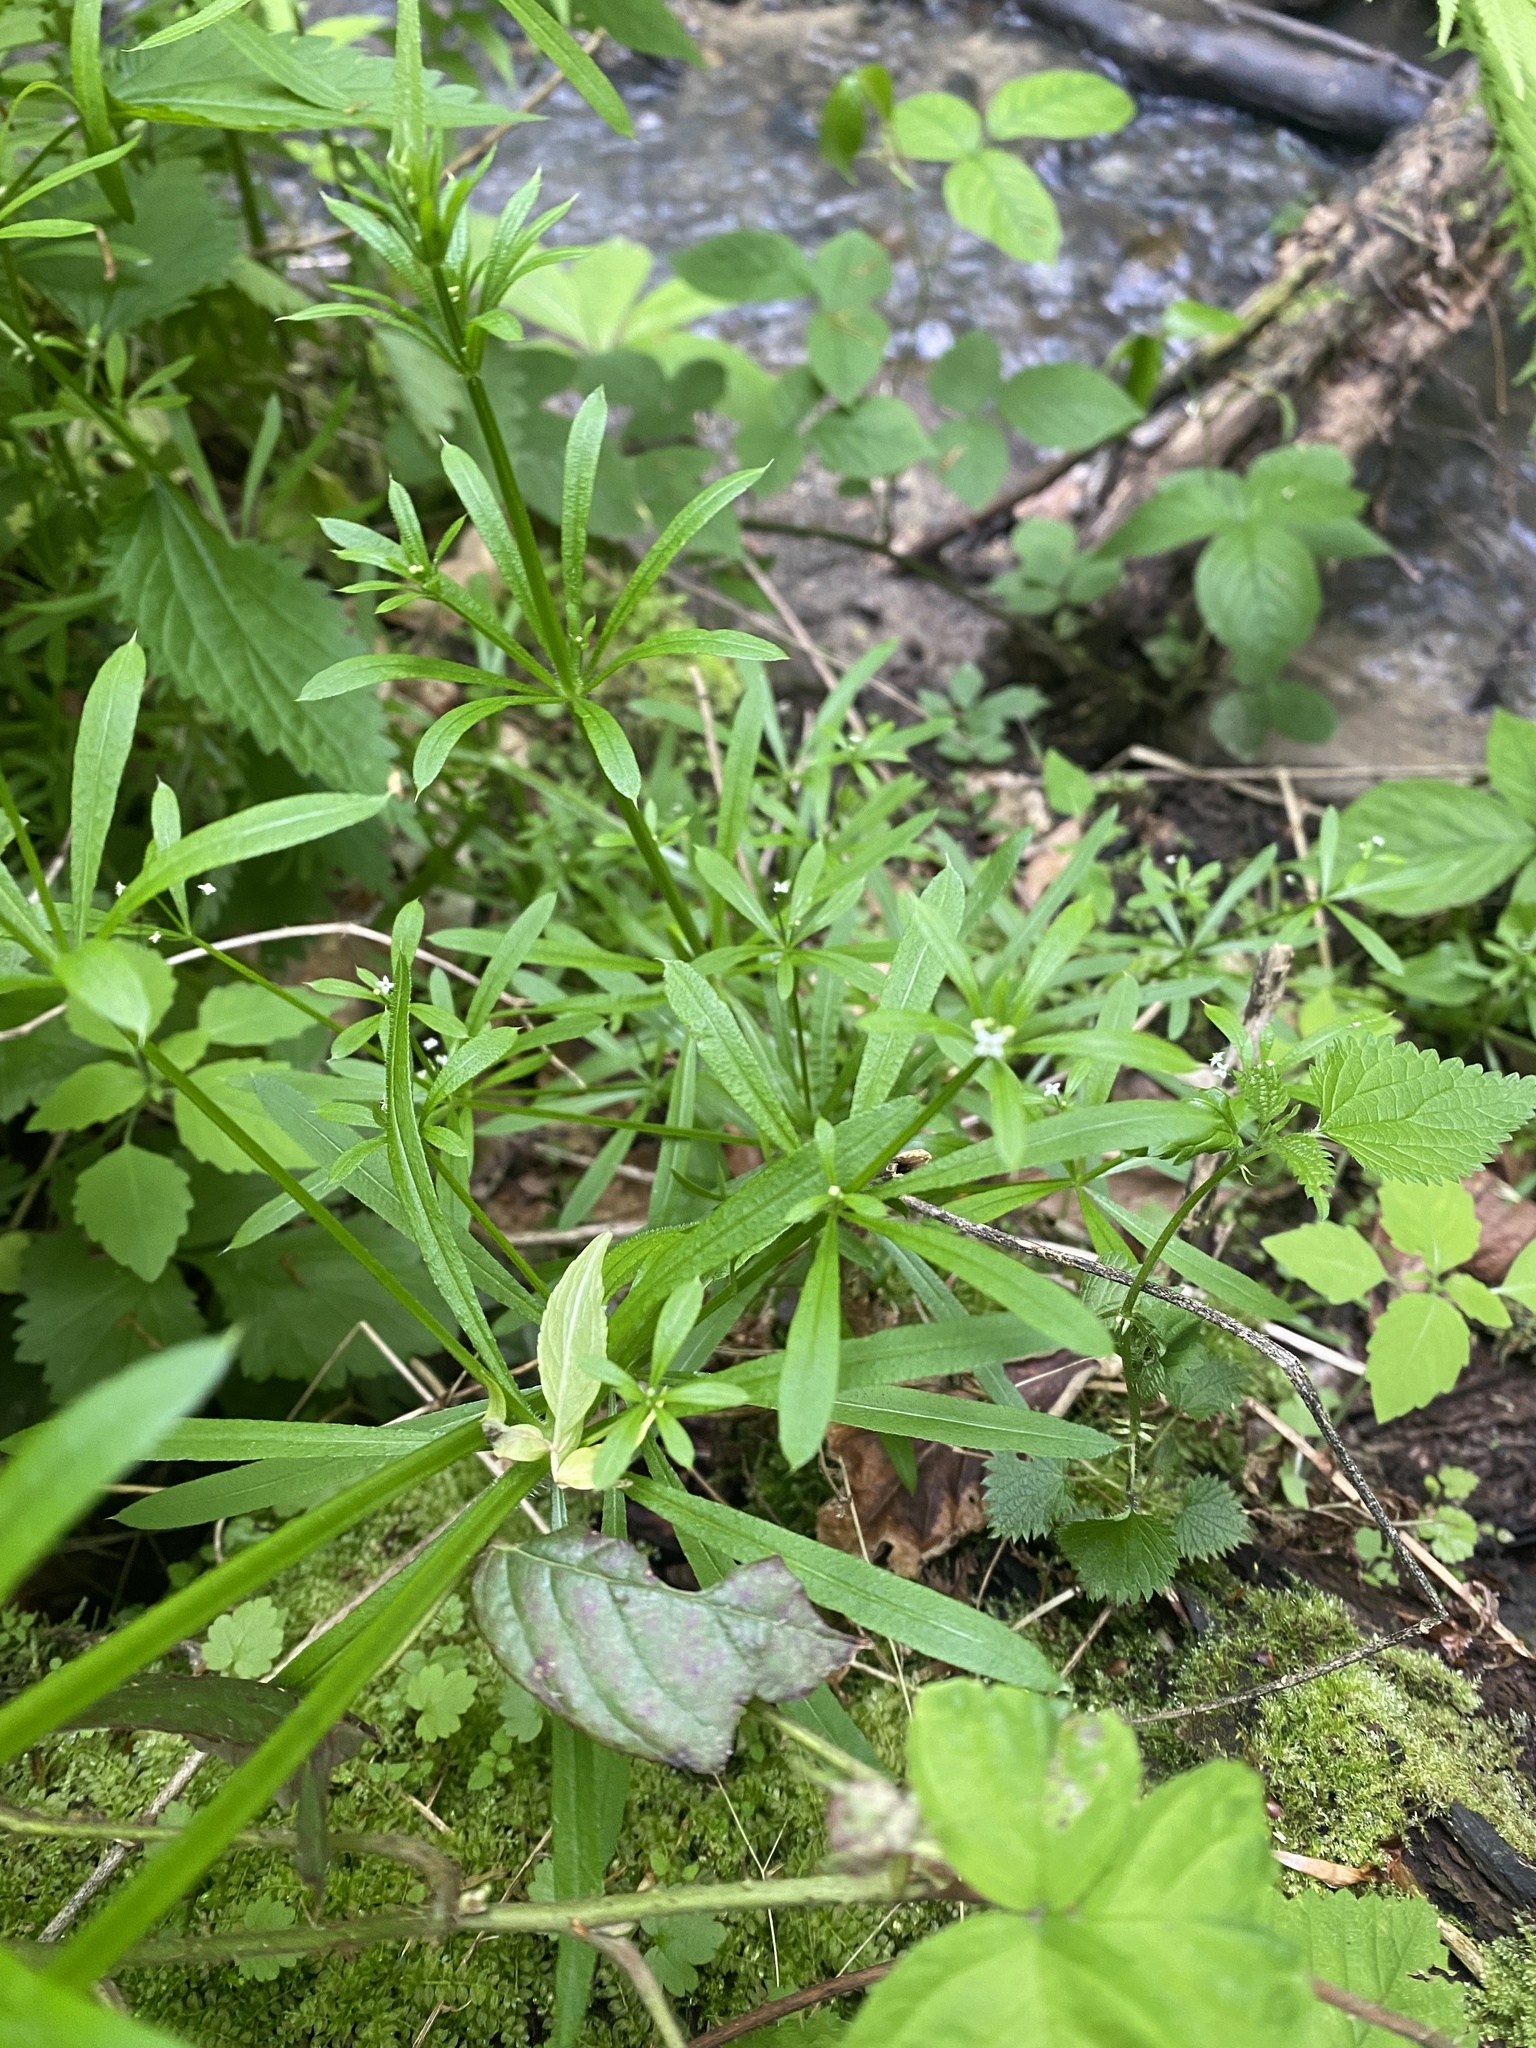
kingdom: Plantae
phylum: Tracheophyta
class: Magnoliopsida
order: Gentianales
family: Rubiaceae
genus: Galium
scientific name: Galium aparine
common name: Cleavers
